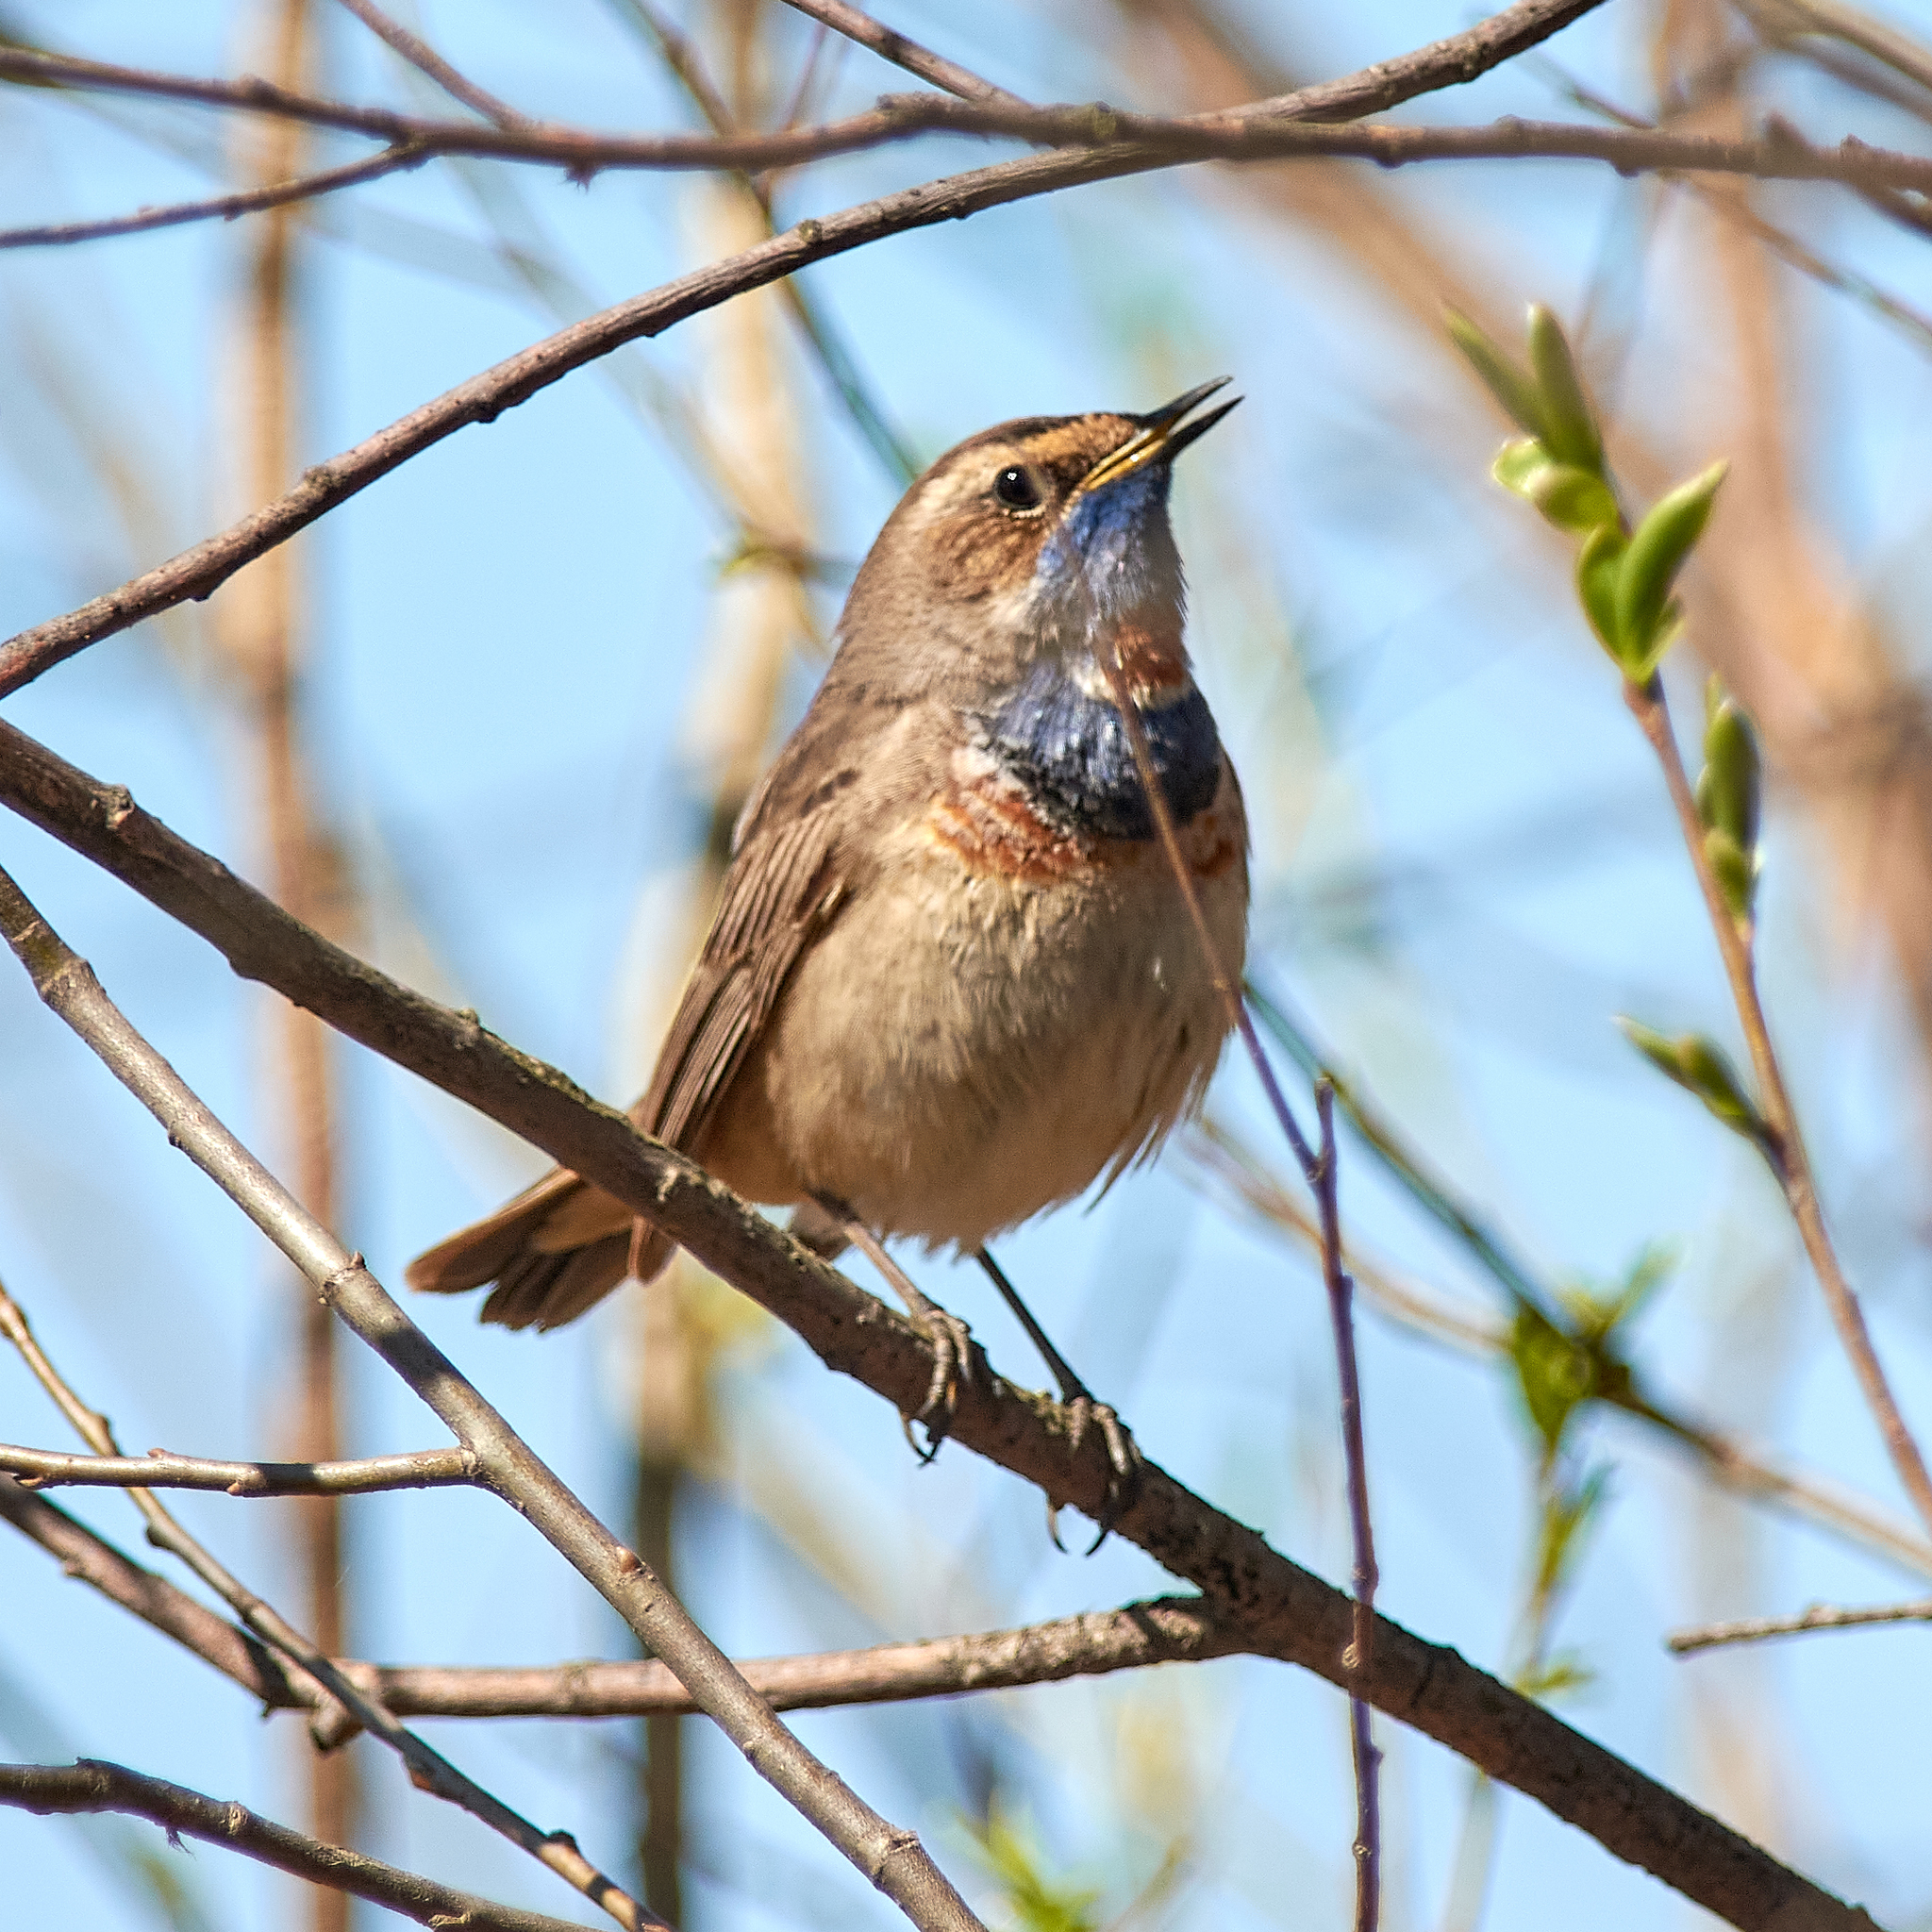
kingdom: Animalia
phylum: Chordata
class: Aves
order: Passeriformes
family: Muscicapidae
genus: Luscinia
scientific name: Luscinia svecica
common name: Bluethroat
